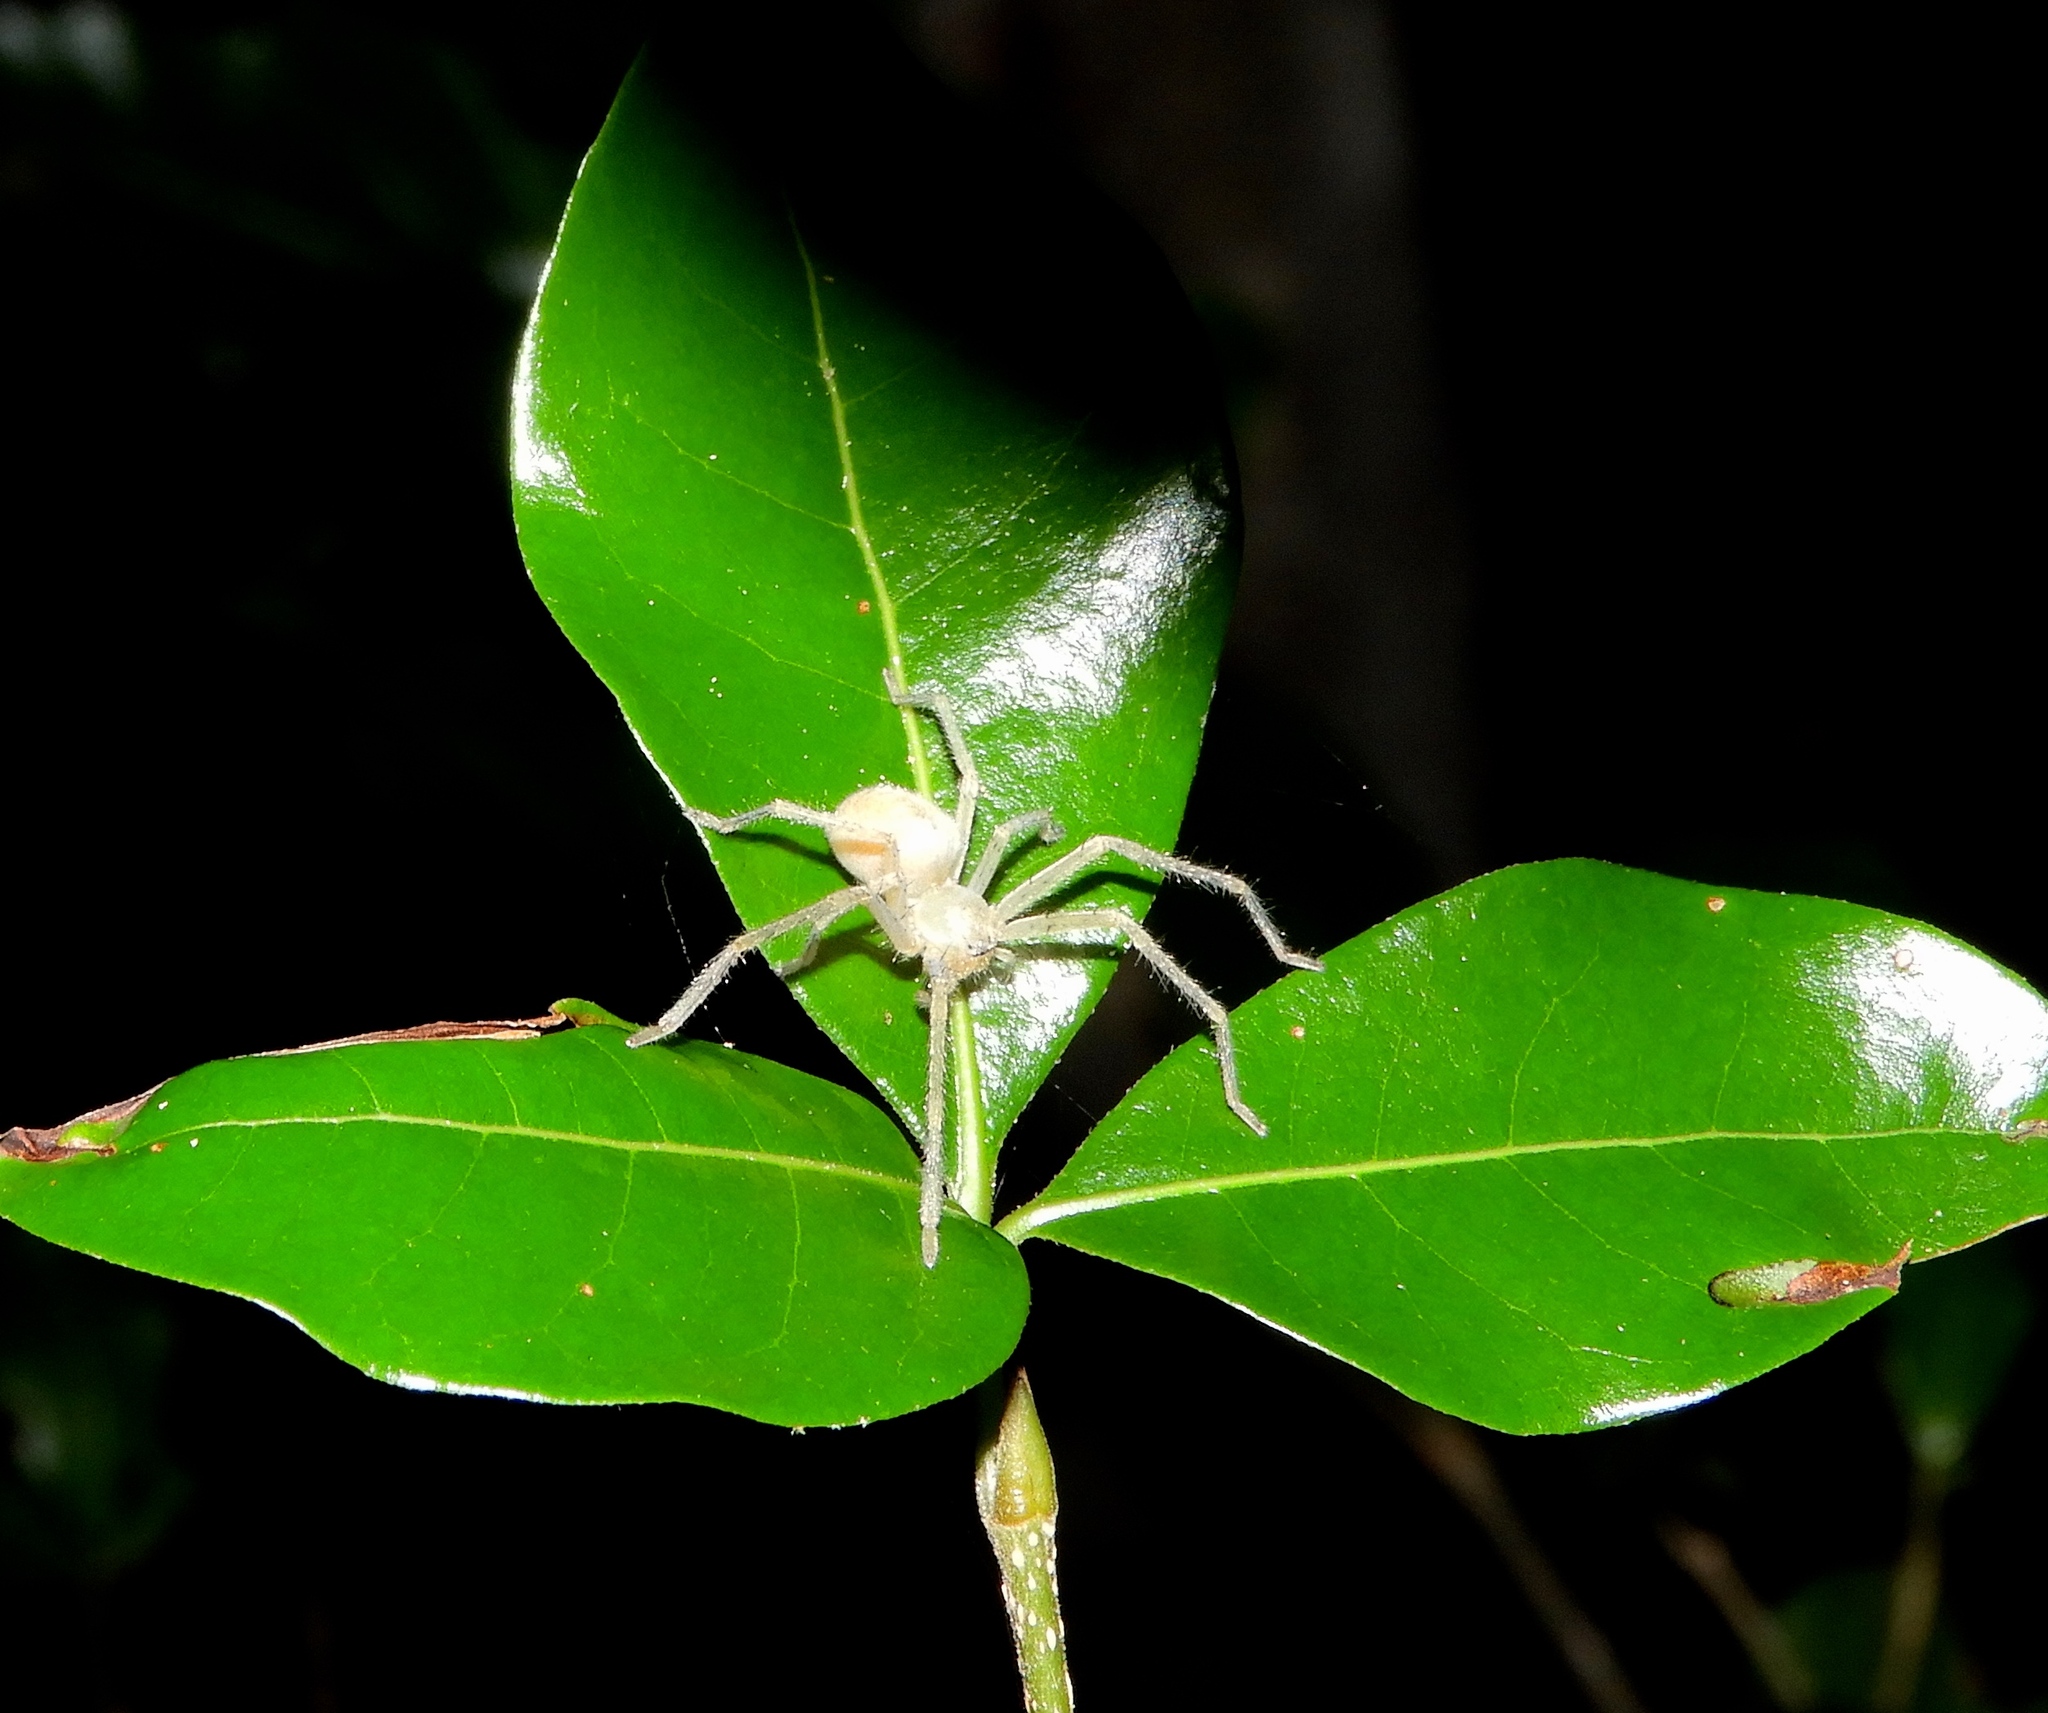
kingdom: Animalia
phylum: Arthropoda
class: Arachnida
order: Araneae
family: Sparassidae
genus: Curicaberis
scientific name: Curicaberis culiacan
